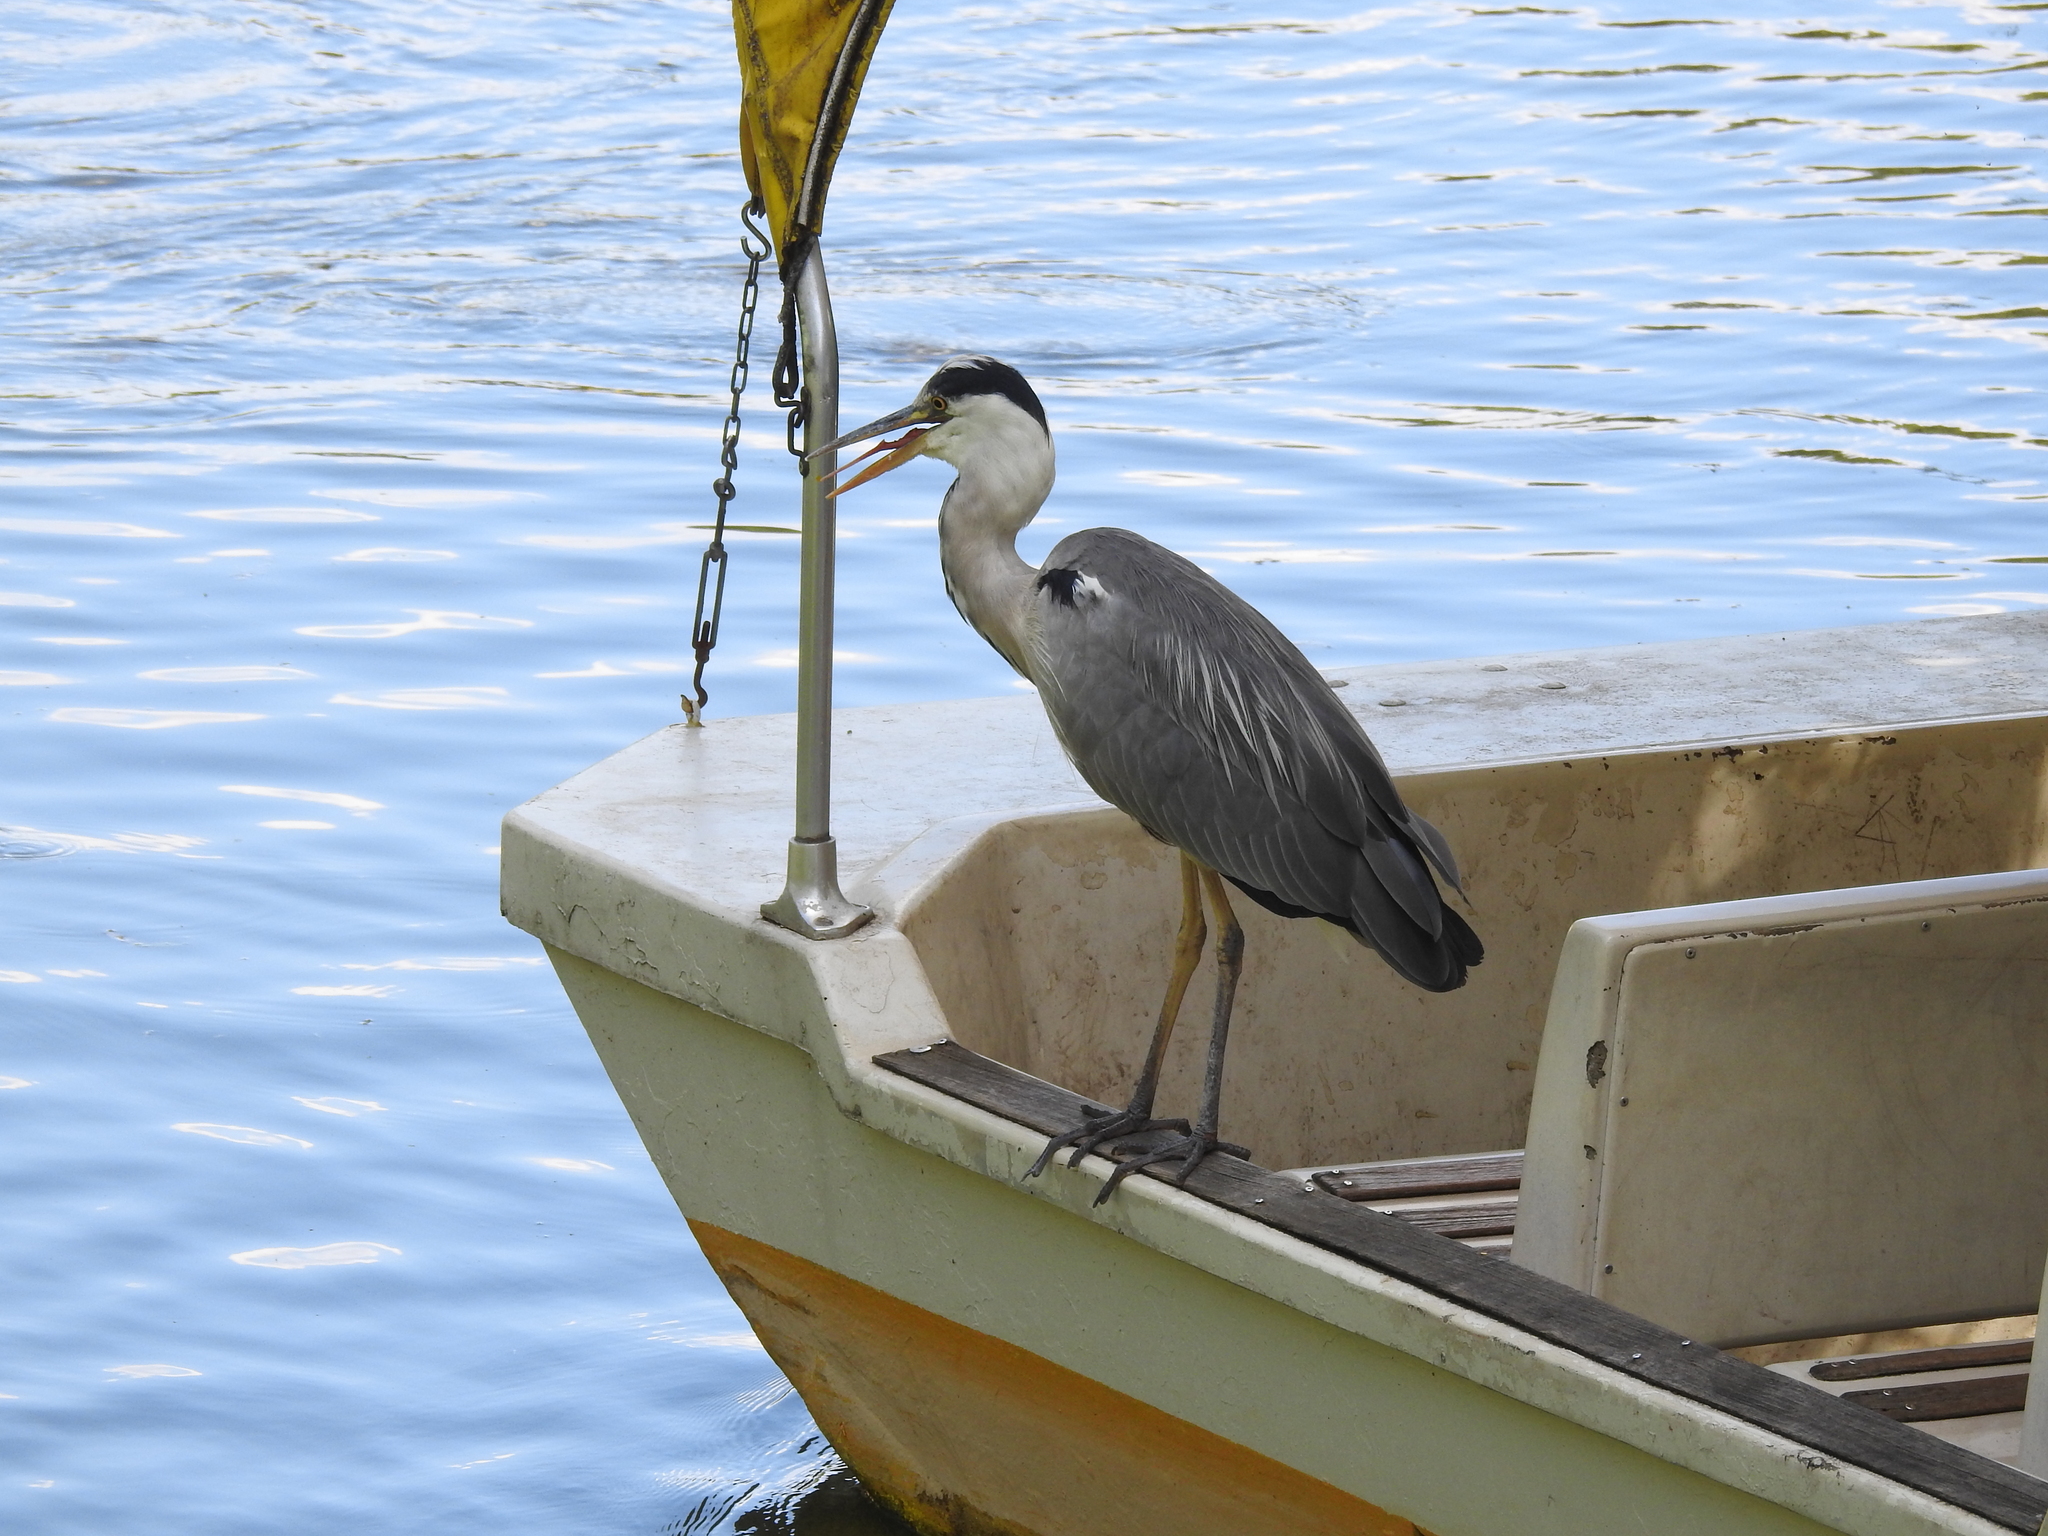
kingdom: Animalia
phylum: Chordata
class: Aves
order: Pelecaniformes
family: Ardeidae
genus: Ardea
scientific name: Ardea cinerea
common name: Grey heron
